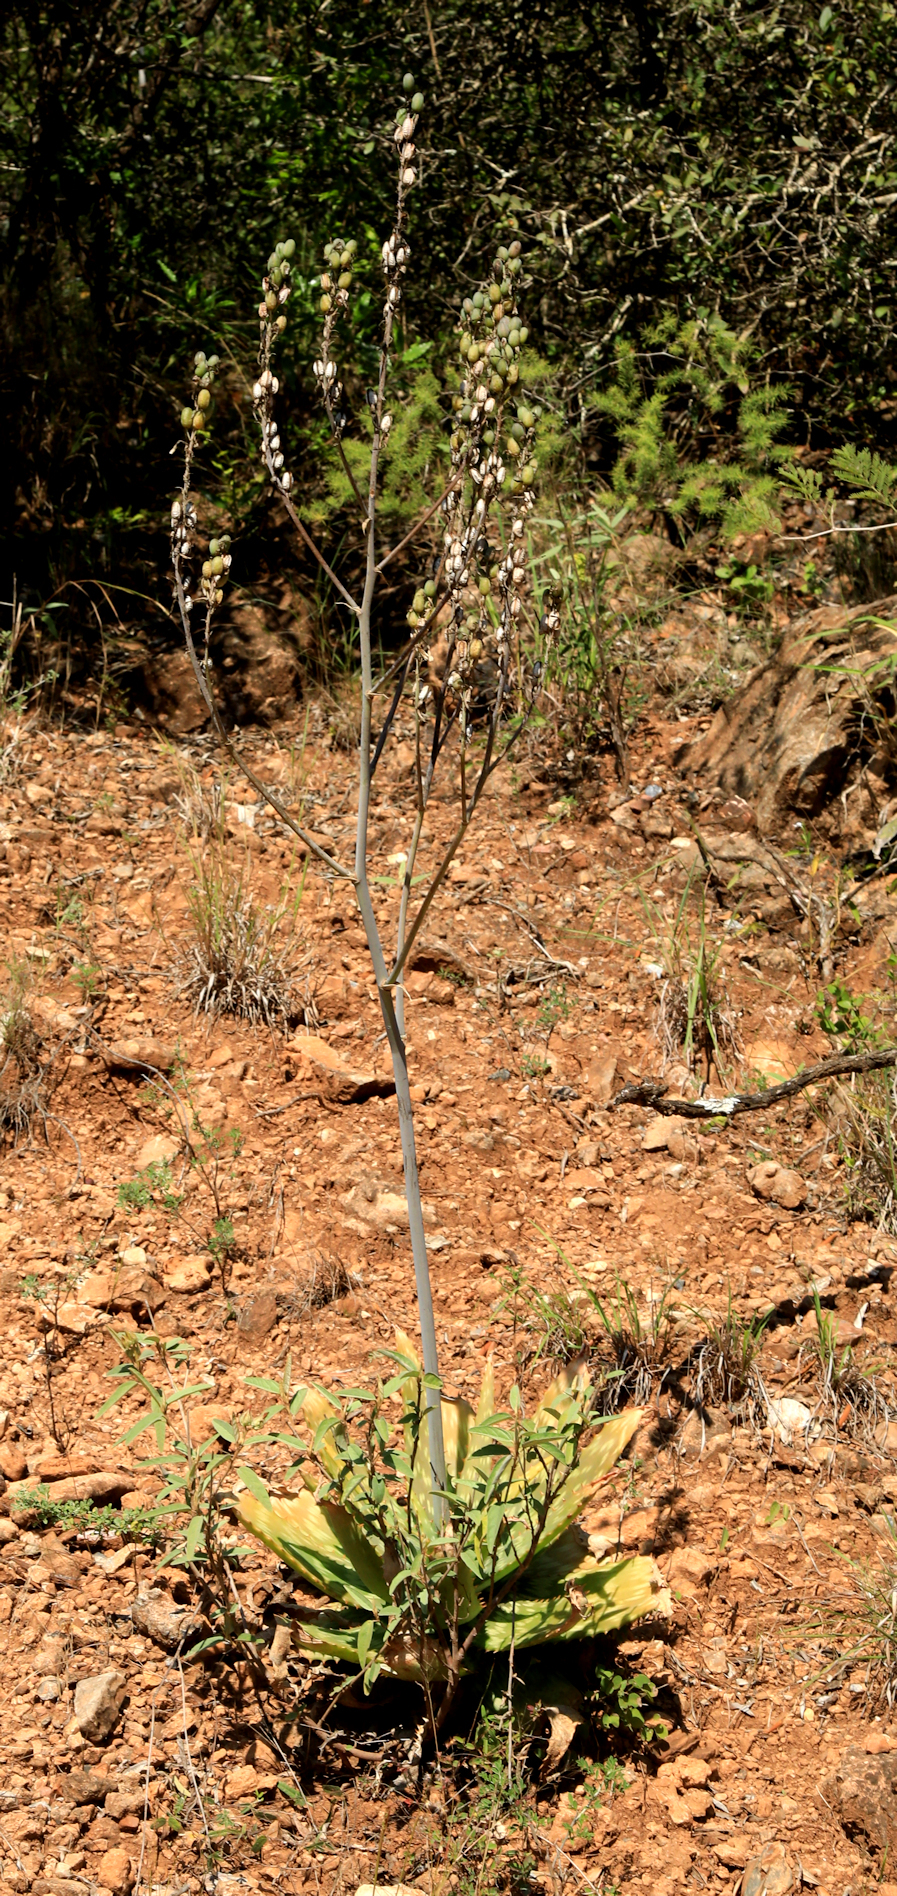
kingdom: Plantae
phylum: Tracheophyta
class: Liliopsida
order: Asparagales
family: Asphodelaceae
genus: Aloe
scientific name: Aloe fosteri
